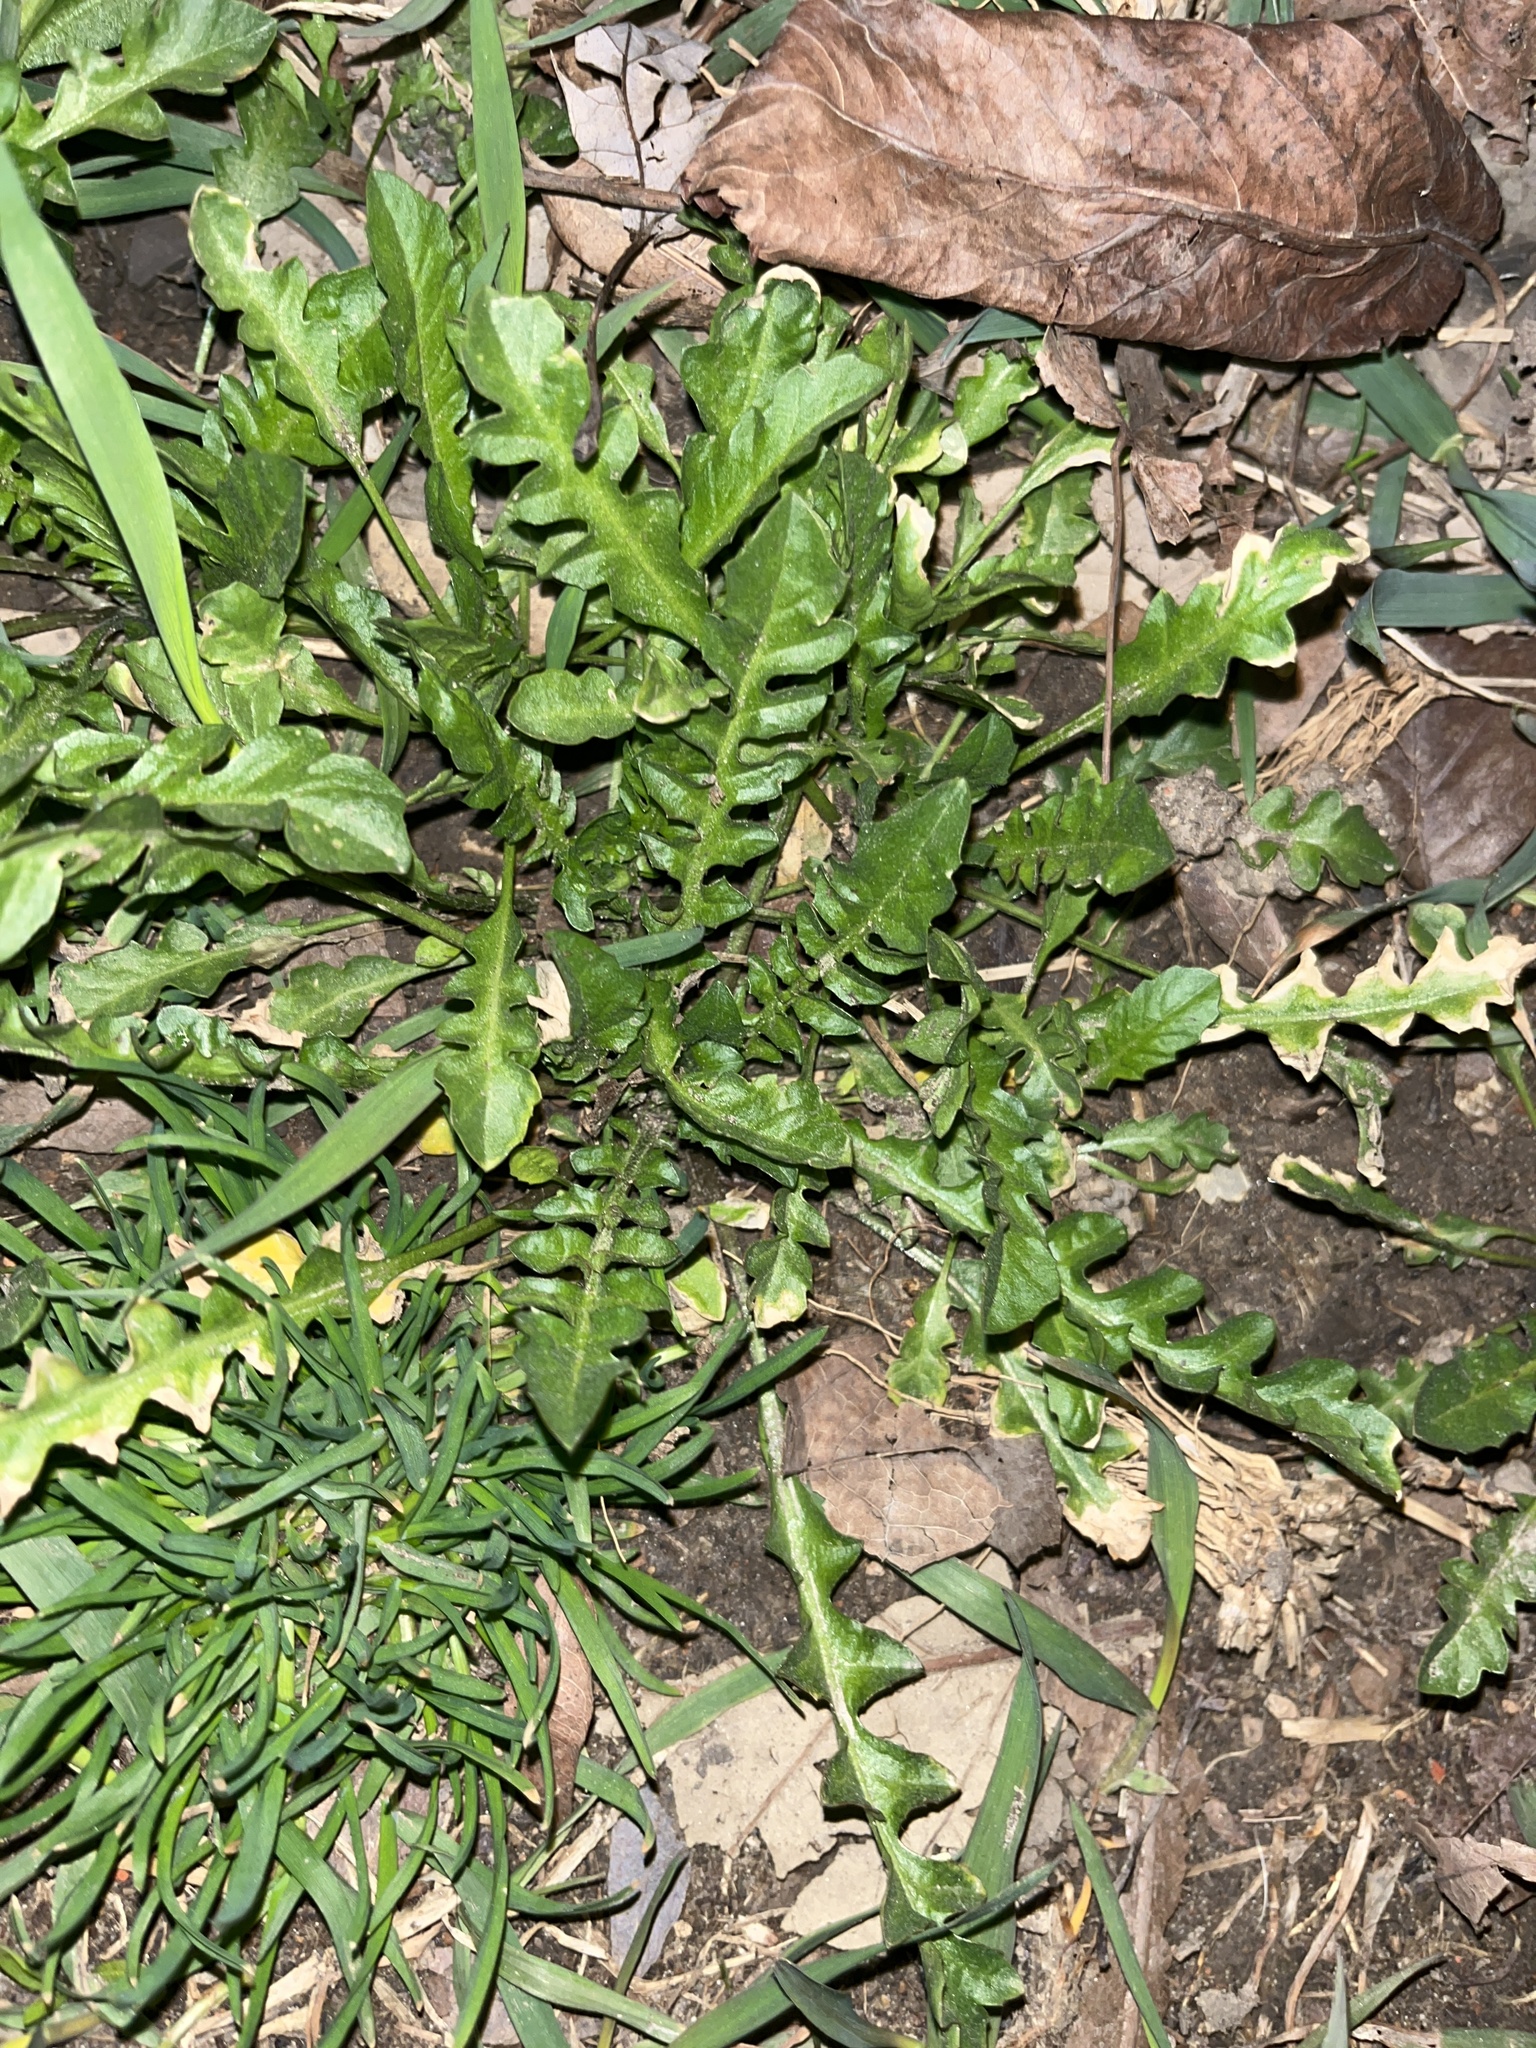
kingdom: Plantae
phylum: Tracheophyta
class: Magnoliopsida
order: Brassicales
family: Brassicaceae
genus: Capsella
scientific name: Capsella bursa-pastoris
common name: Shepherd's purse
